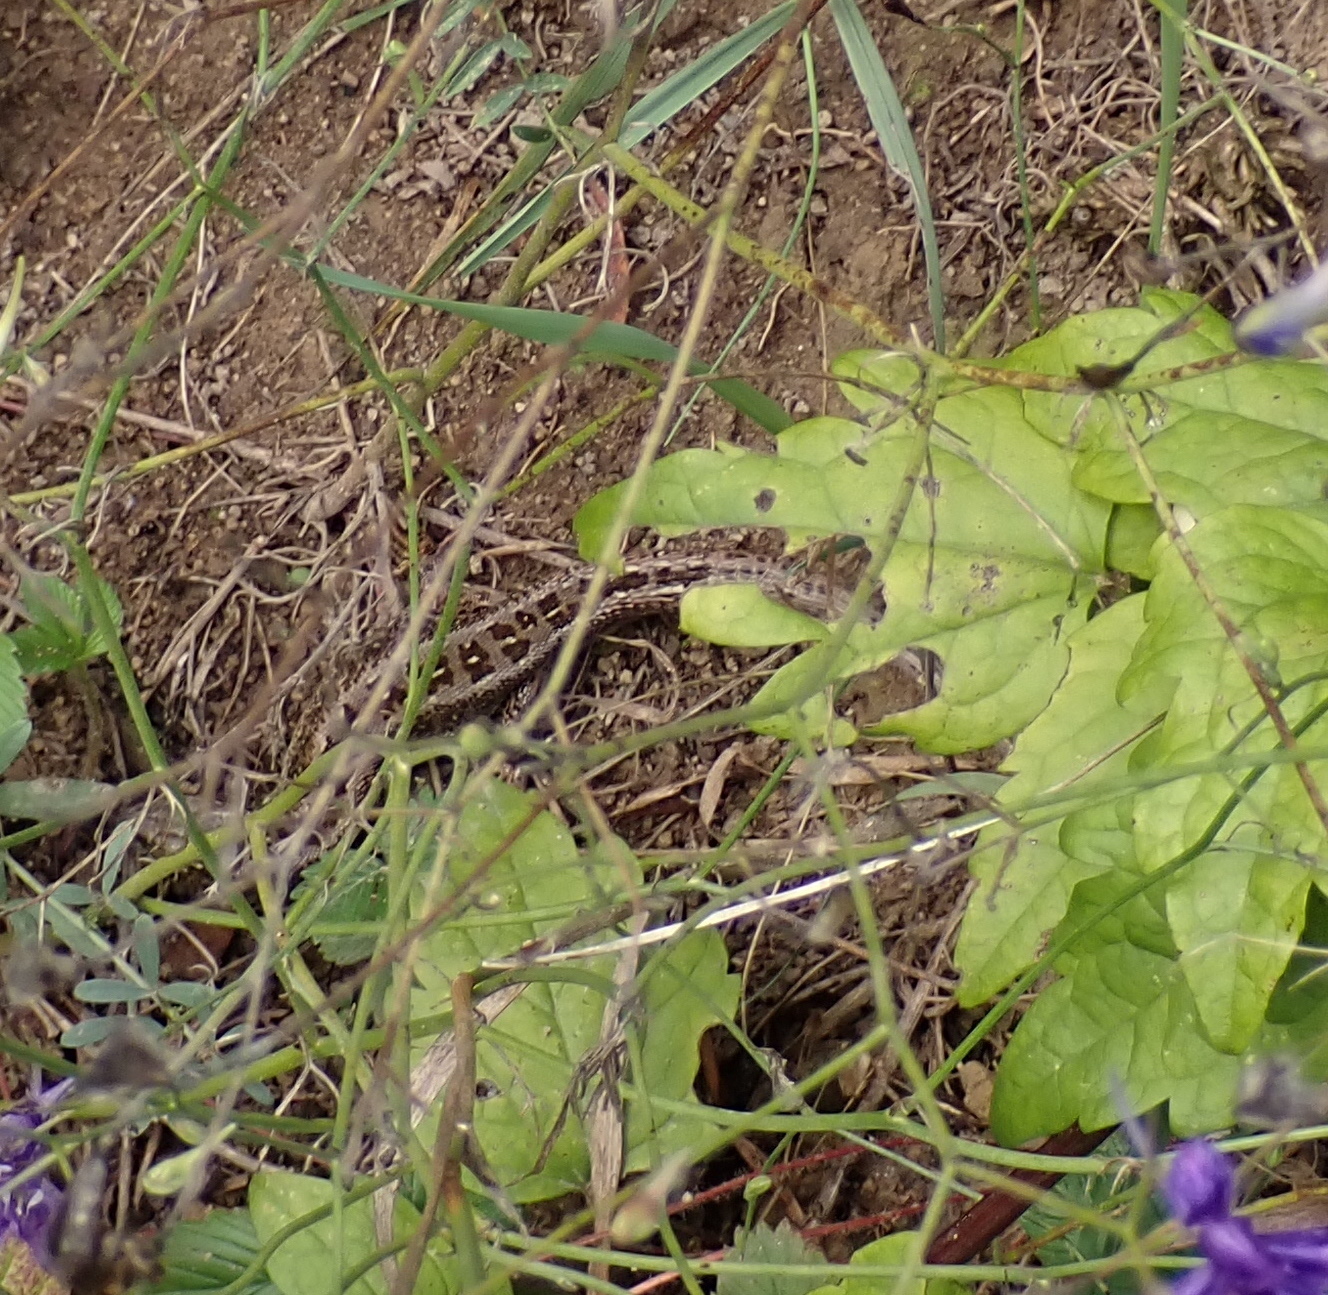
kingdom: Animalia
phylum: Chordata
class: Squamata
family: Lacertidae
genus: Lacerta
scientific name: Lacerta agilis
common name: Sand lizard
